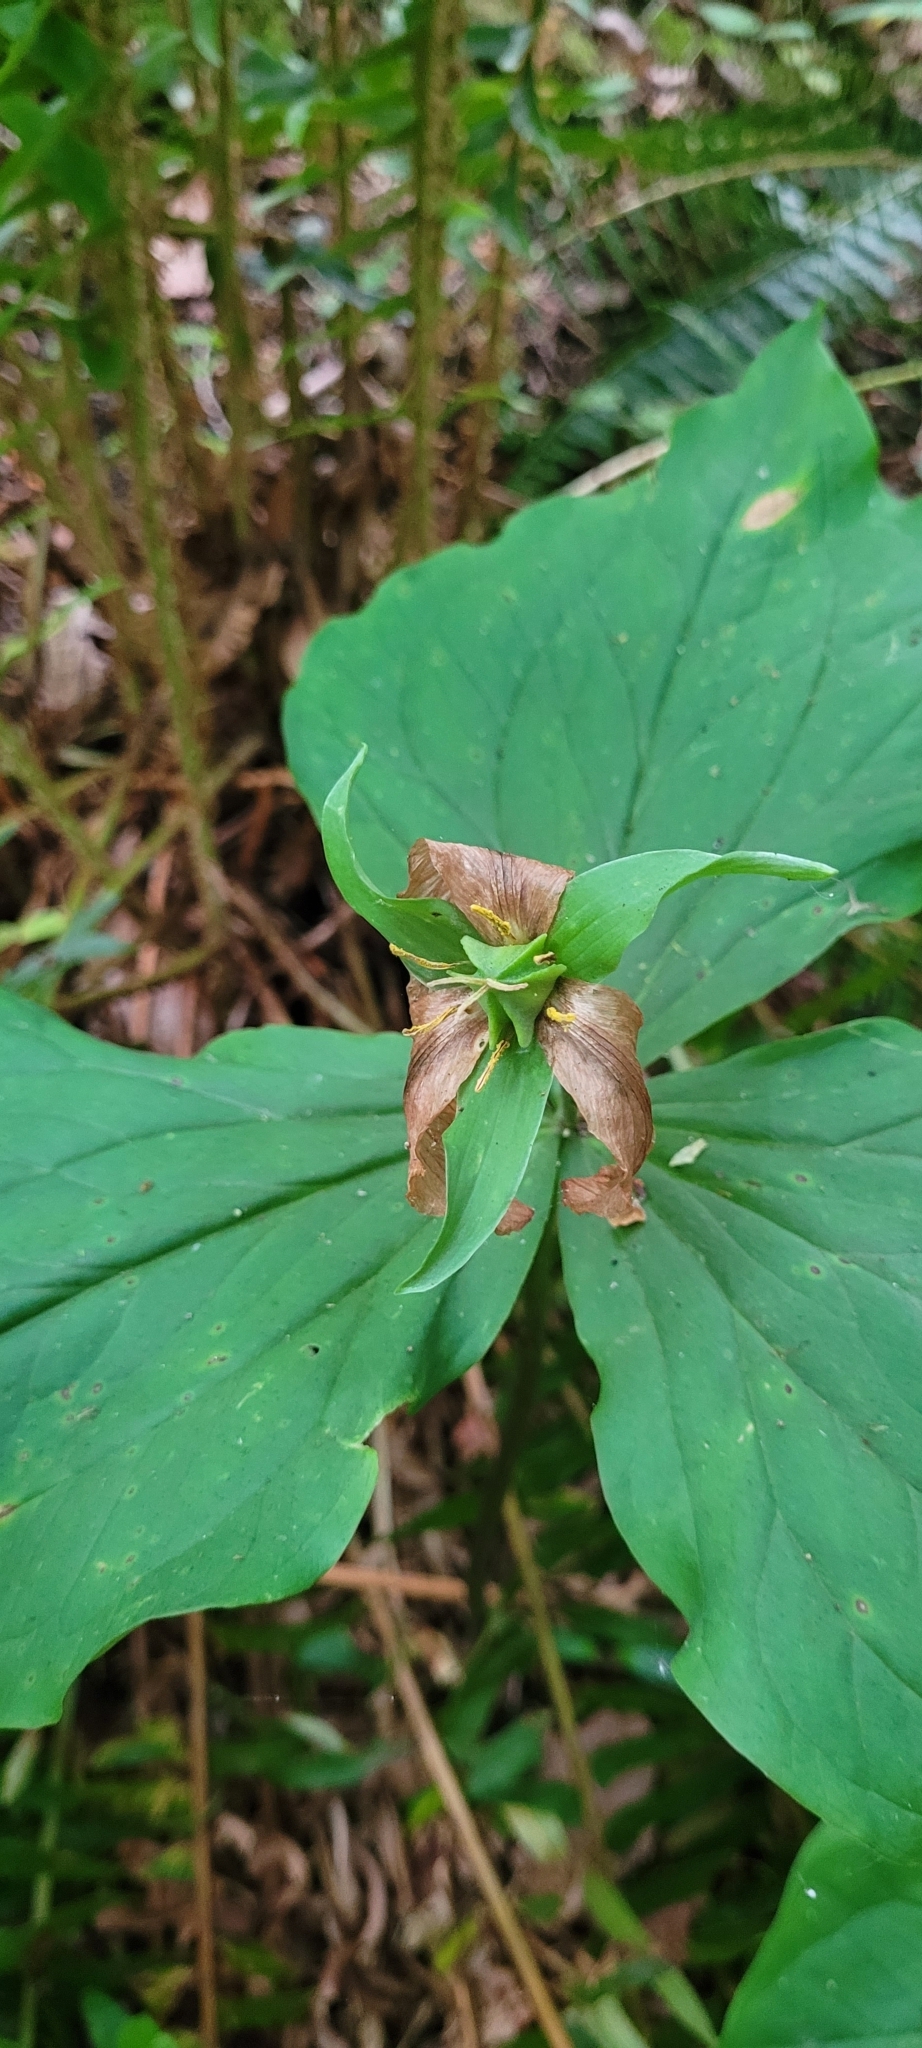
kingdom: Plantae
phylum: Tracheophyta
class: Liliopsida
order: Liliales
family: Melanthiaceae
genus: Trillium
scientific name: Trillium ovatum
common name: Pacific trillium
